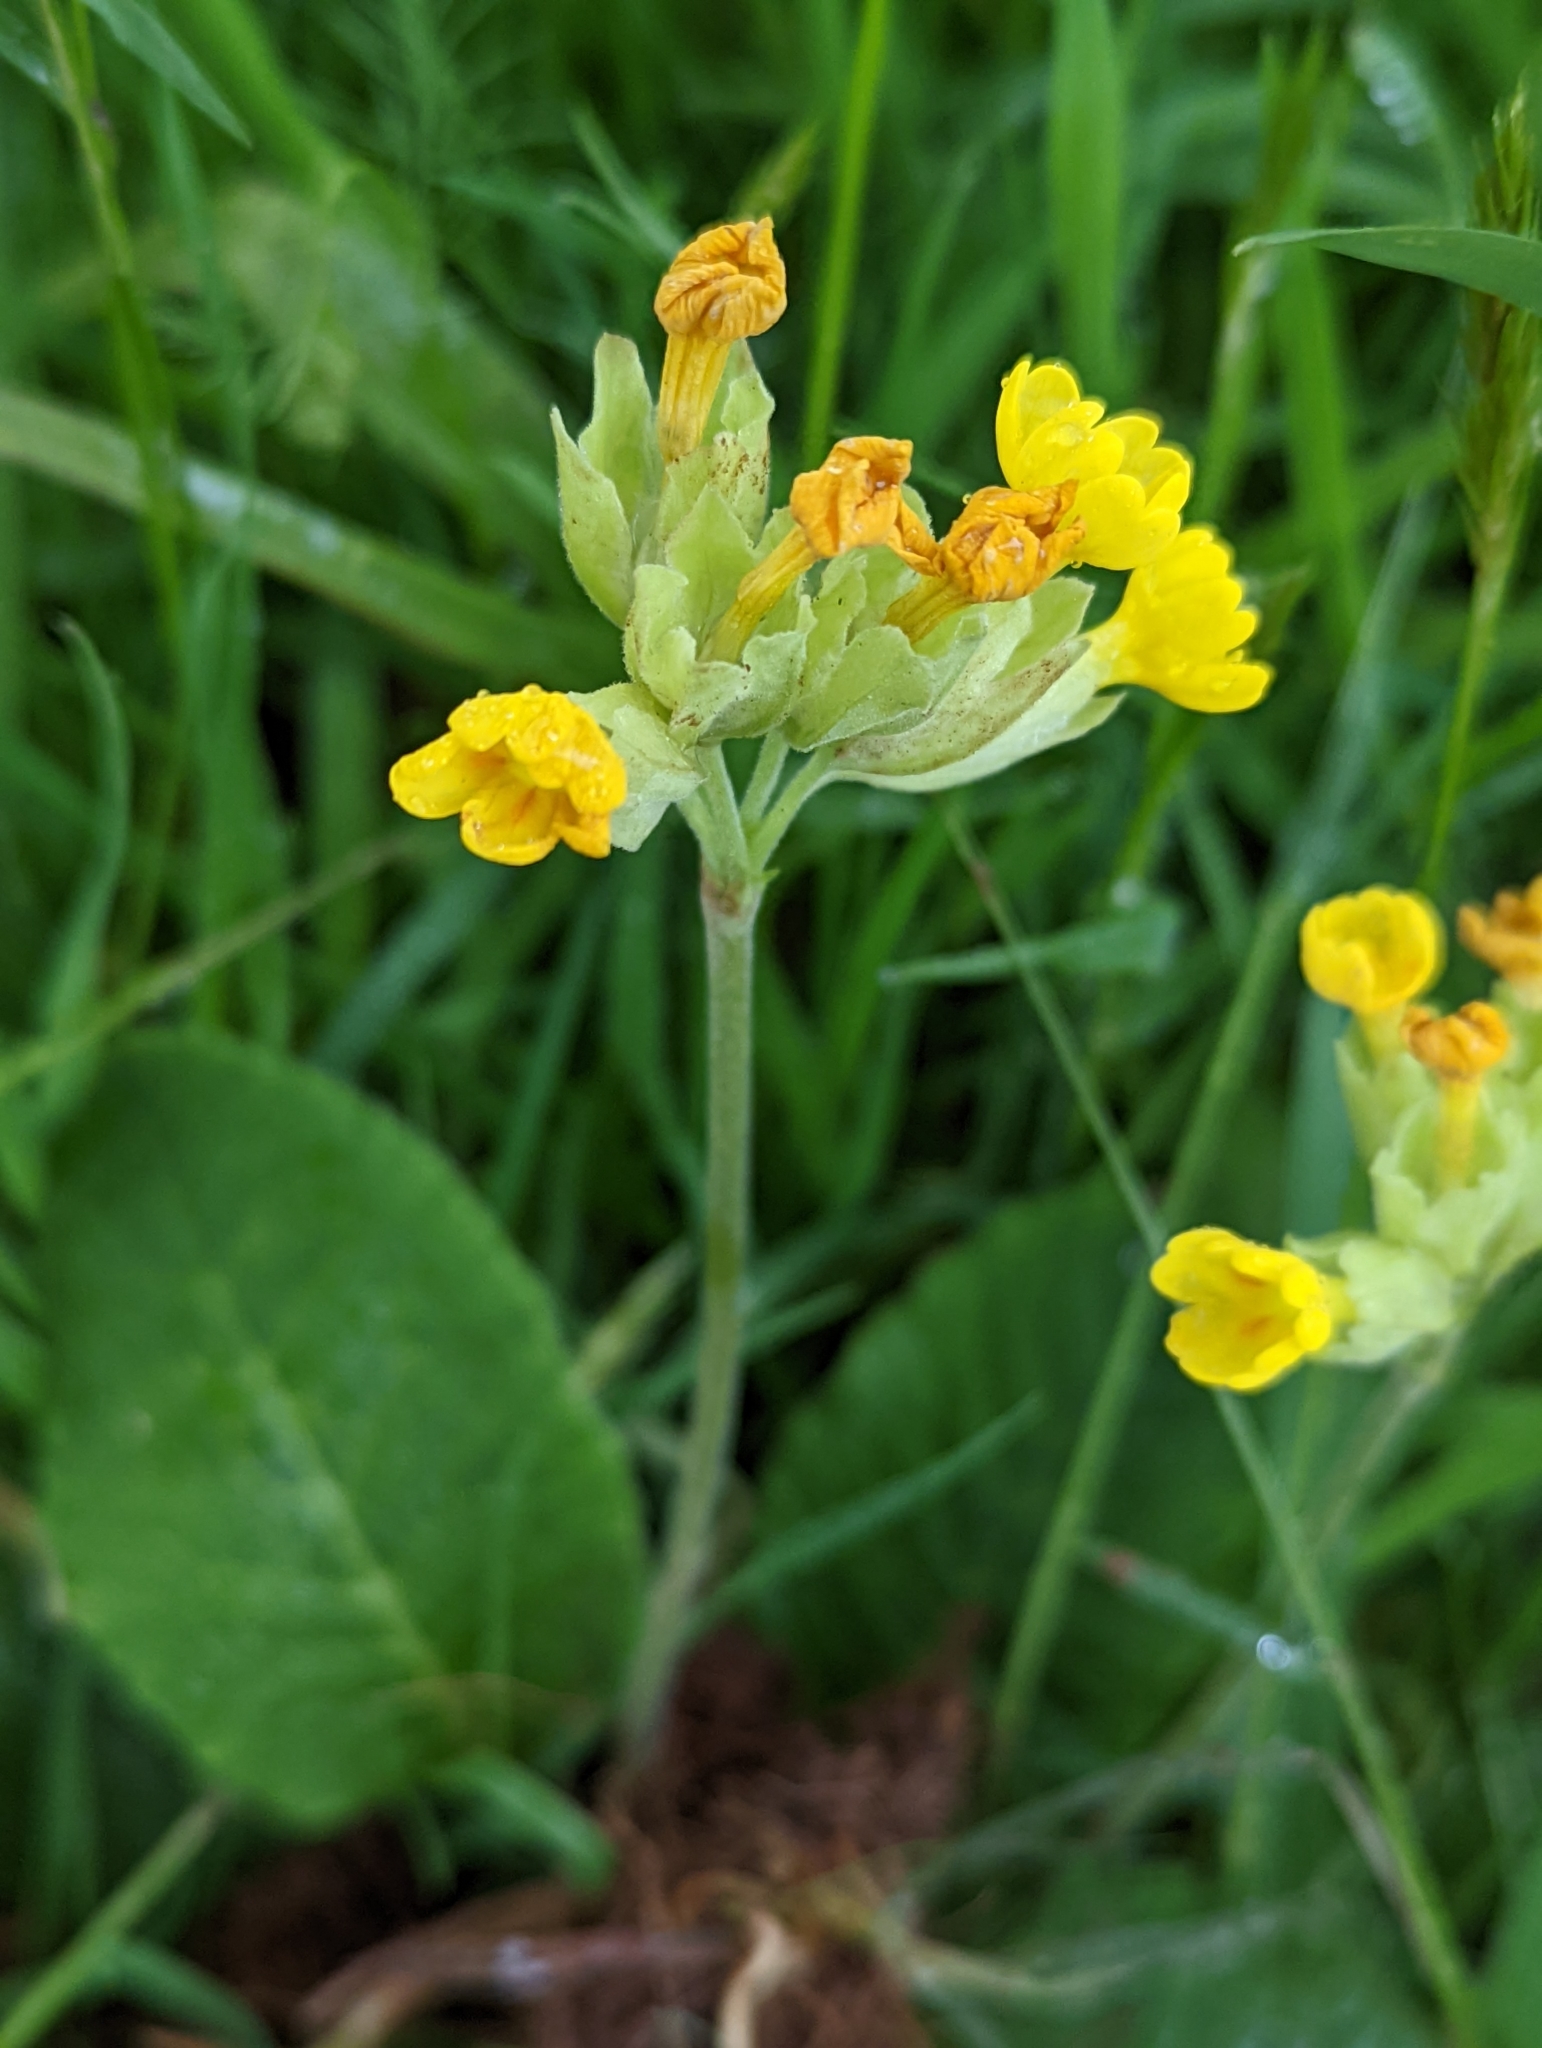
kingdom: Plantae
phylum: Tracheophyta
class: Magnoliopsida
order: Ericales
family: Primulaceae
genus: Primula
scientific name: Primula veris
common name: Cowslip
